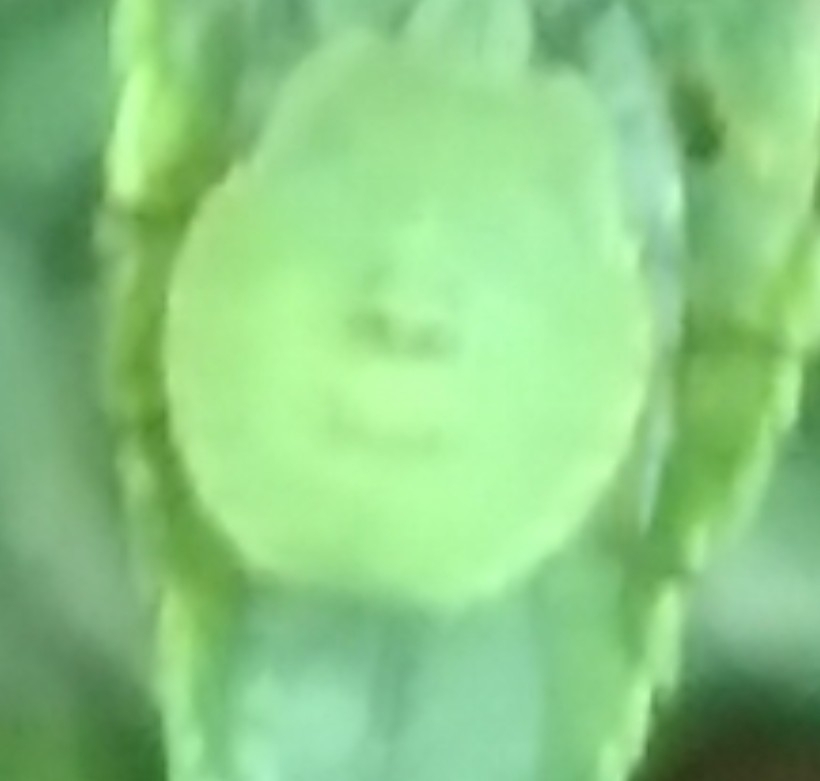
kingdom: Animalia
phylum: Arthropoda
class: Insecta
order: Hemiptera
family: Pentatomidae
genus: Palomena
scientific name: Palomena prasina
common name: Green shieldbug
